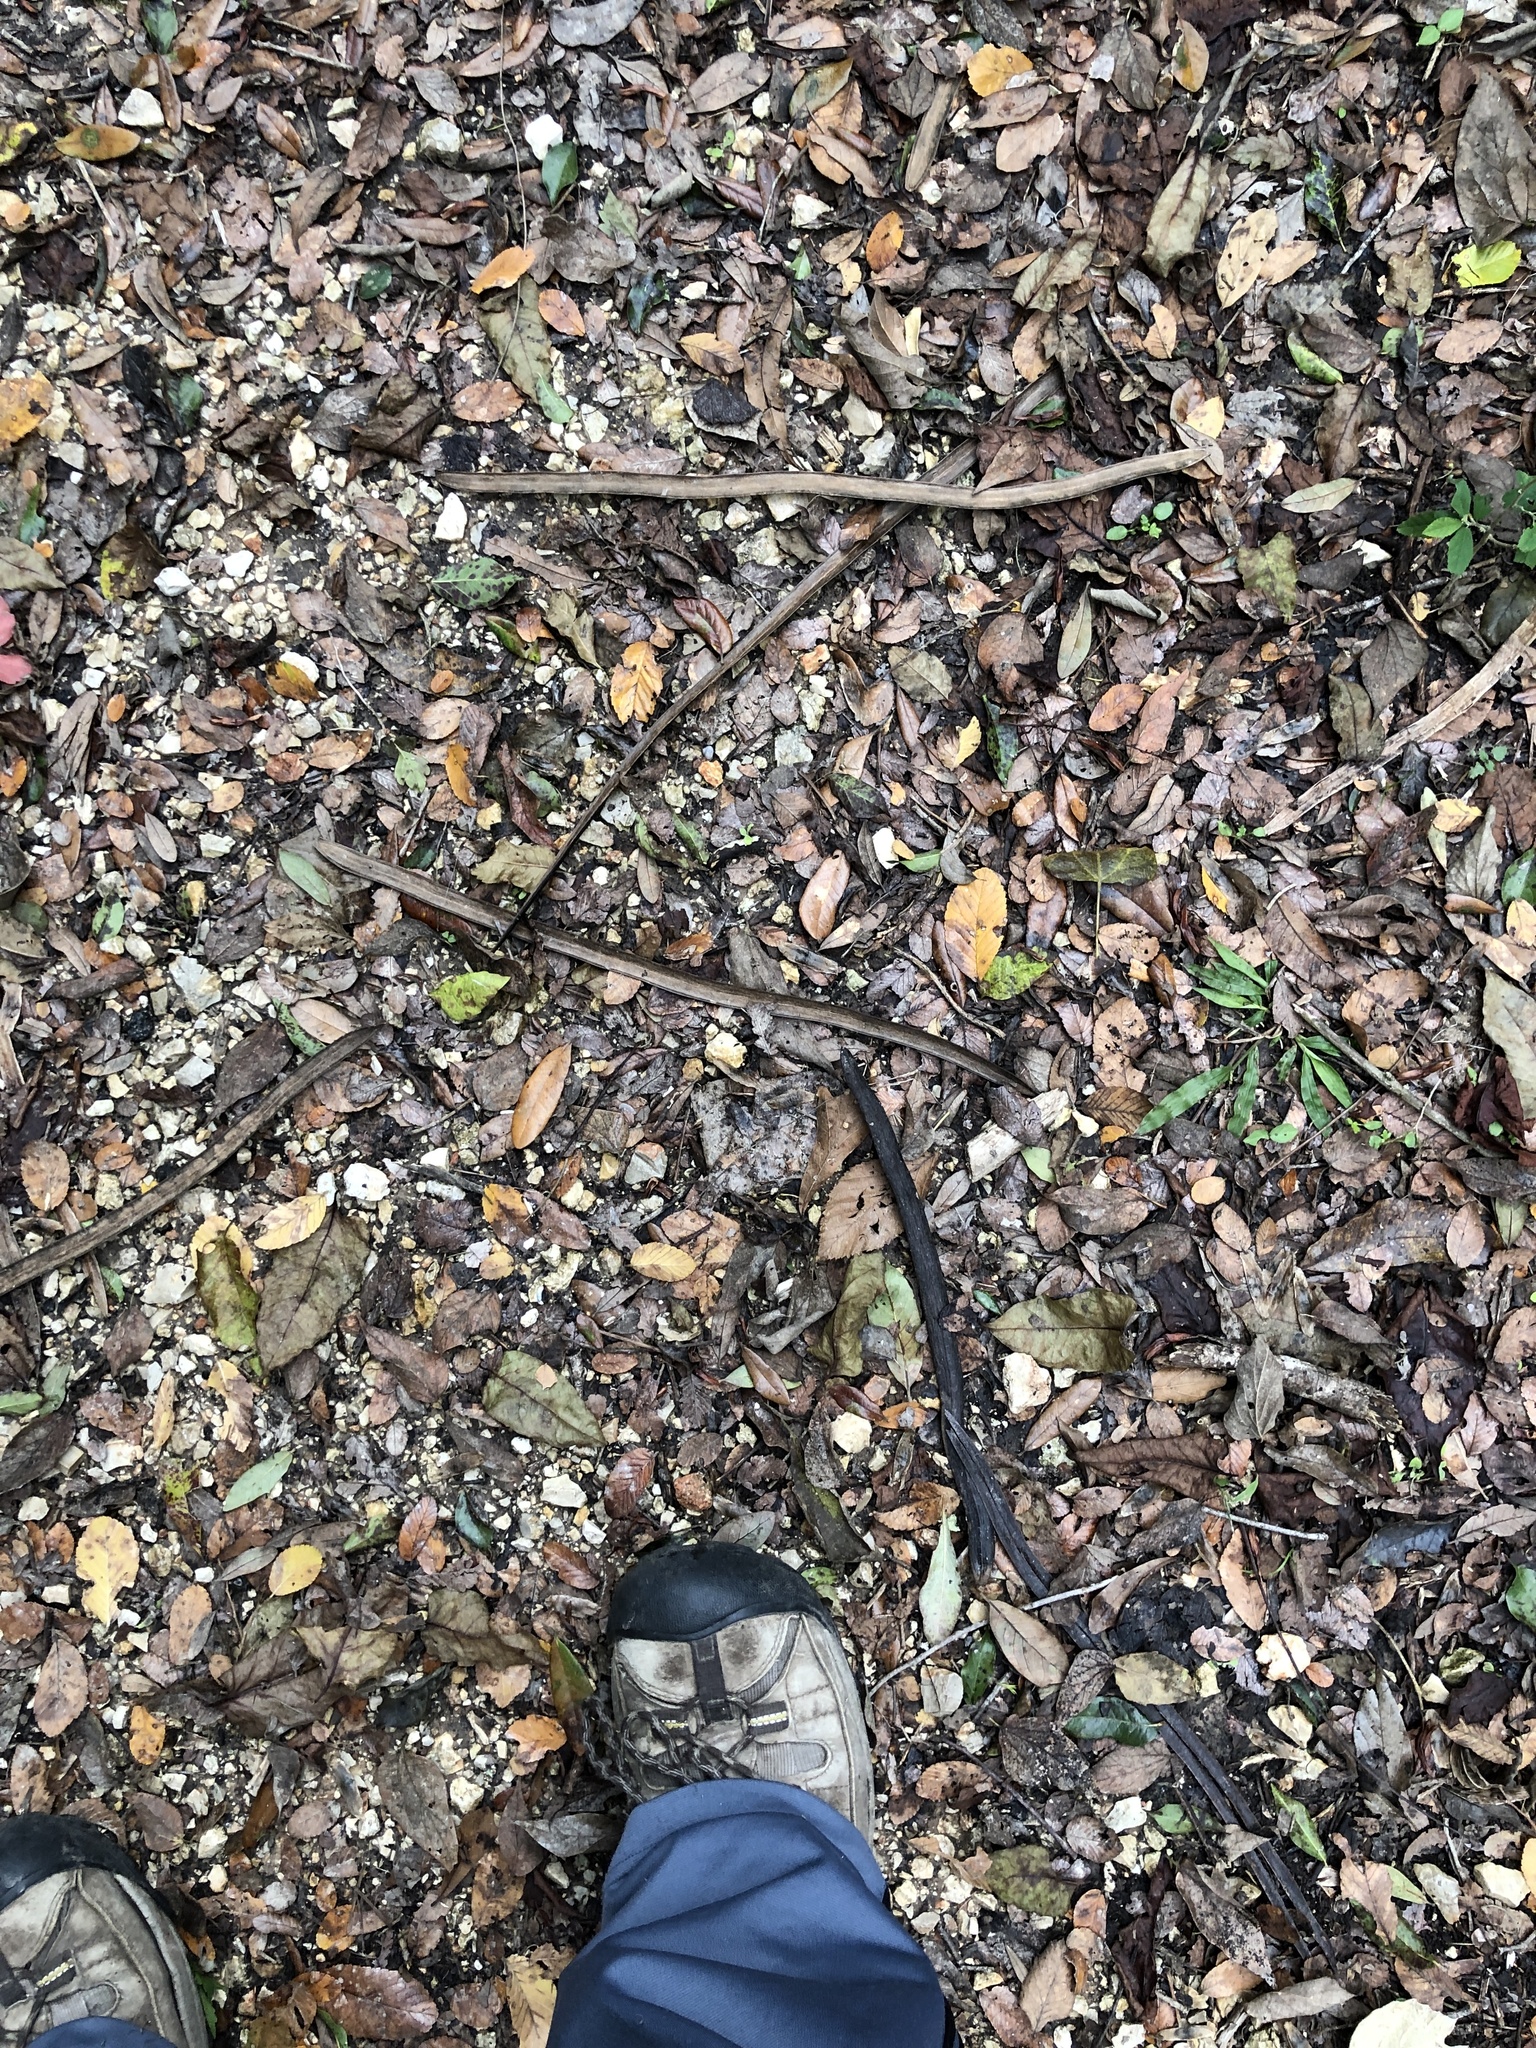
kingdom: Plantae
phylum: Tracheophyta
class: Magnoliopsida
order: Lamiales
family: Bignoniaceae
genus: Dolichandra
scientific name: Dolichandra unguis-cati
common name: Catclaw vine
